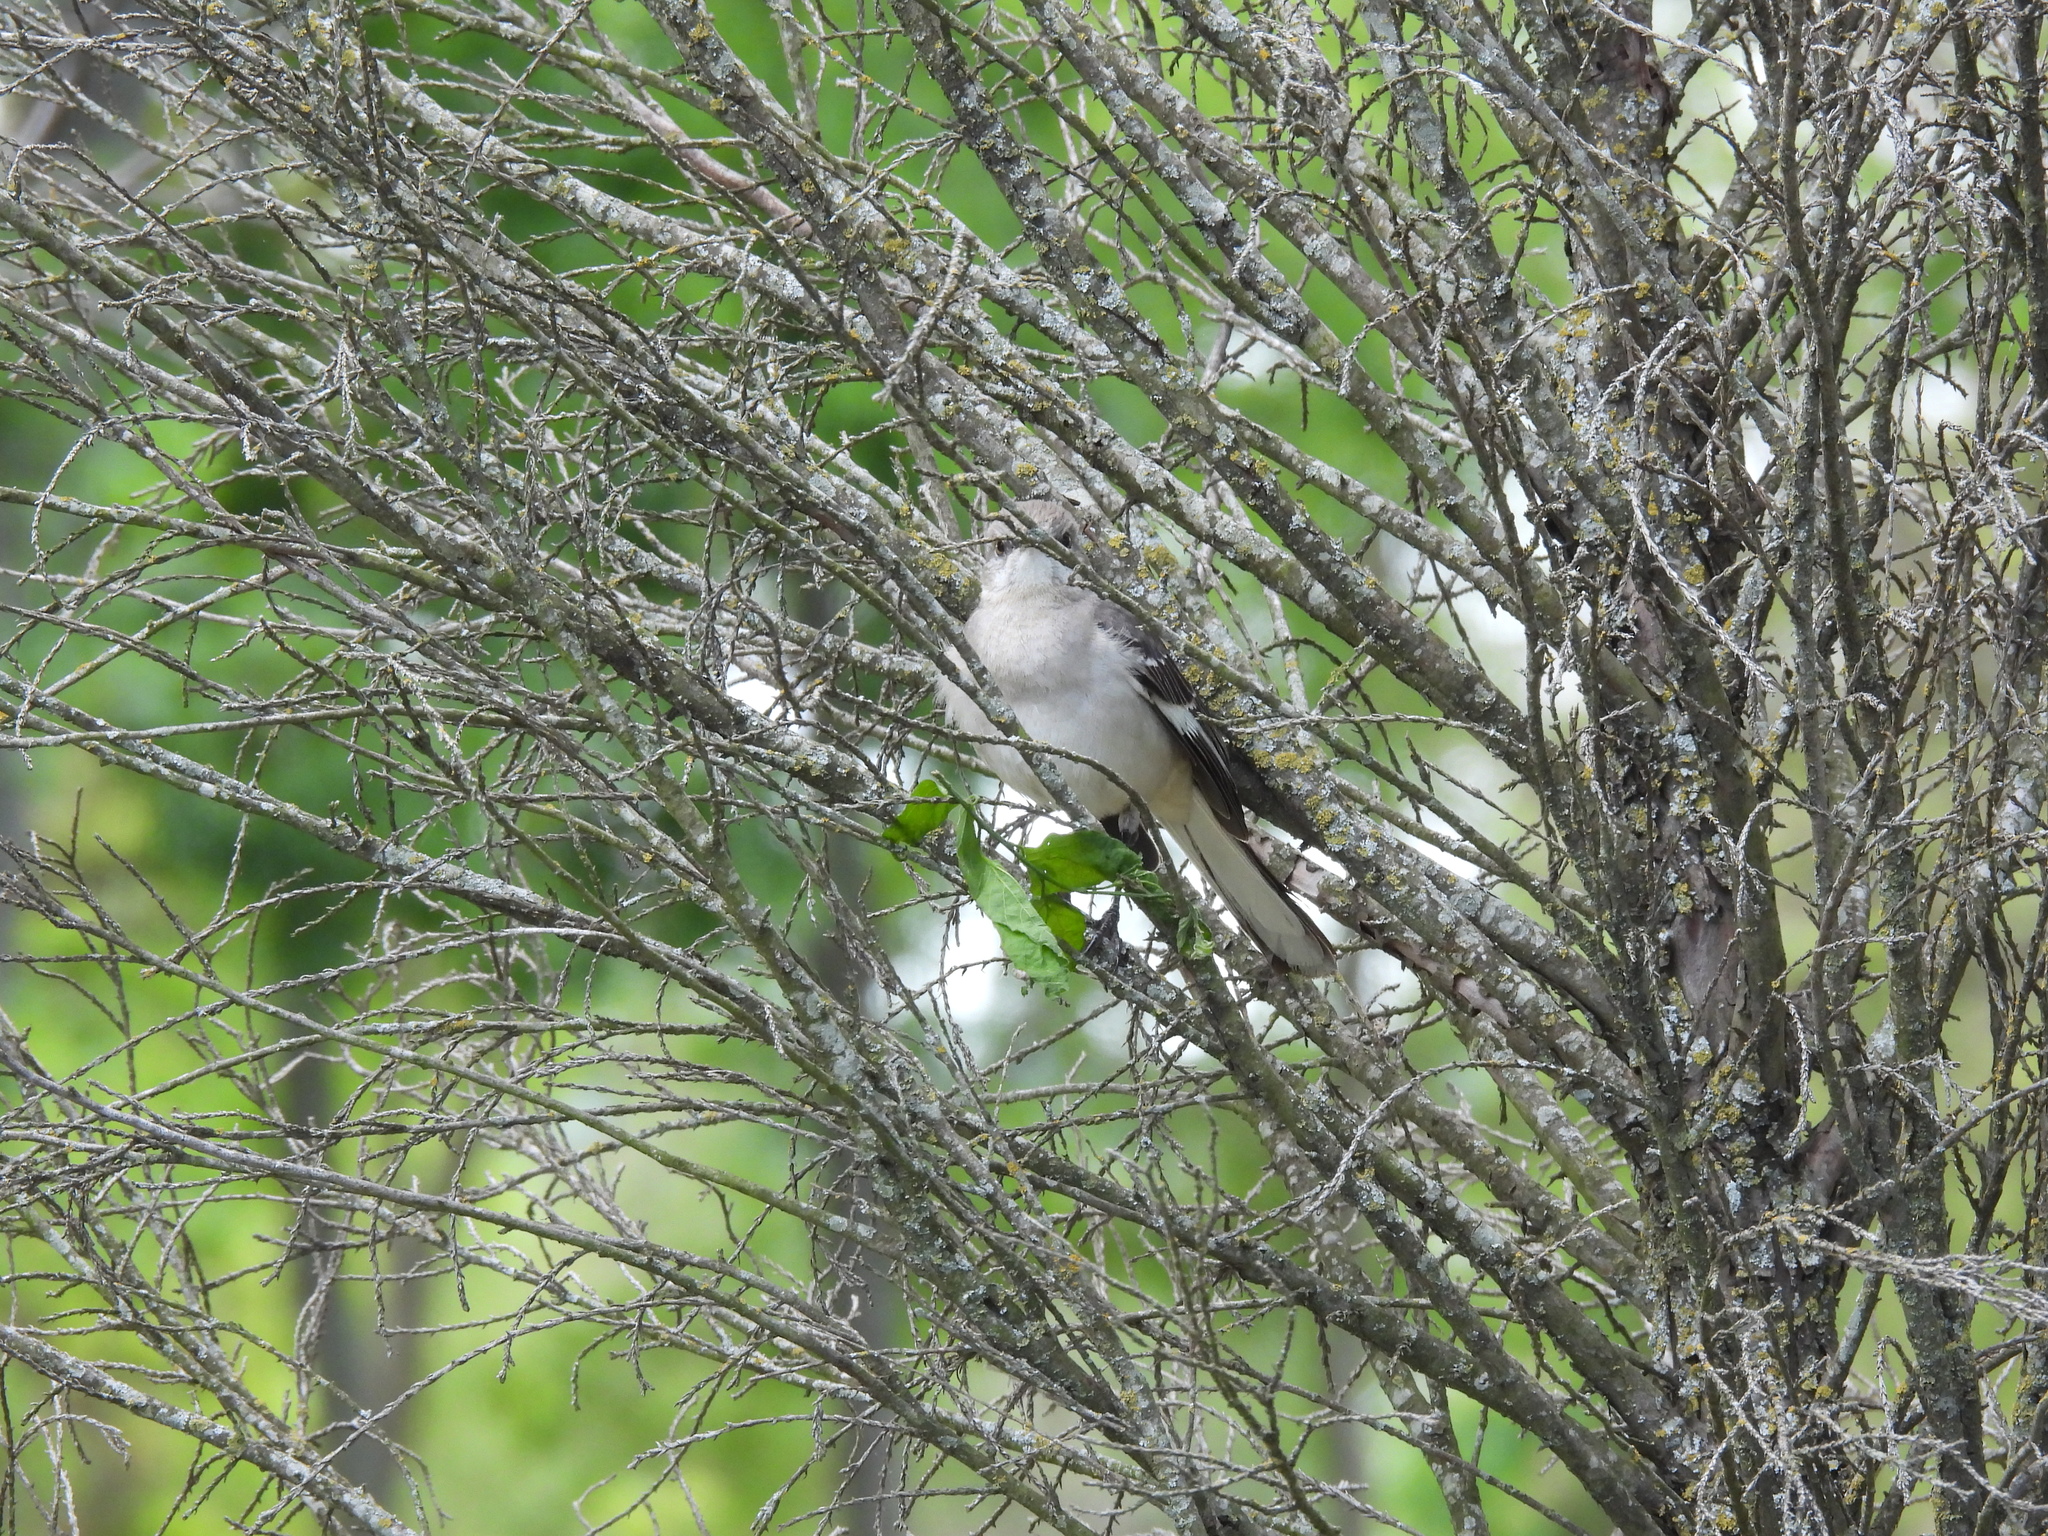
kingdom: Animalia
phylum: Chordata
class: Aves
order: Passeriformes
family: Mimidae
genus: Mimus
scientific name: Mimus polyglottos
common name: Northern mockingbird
